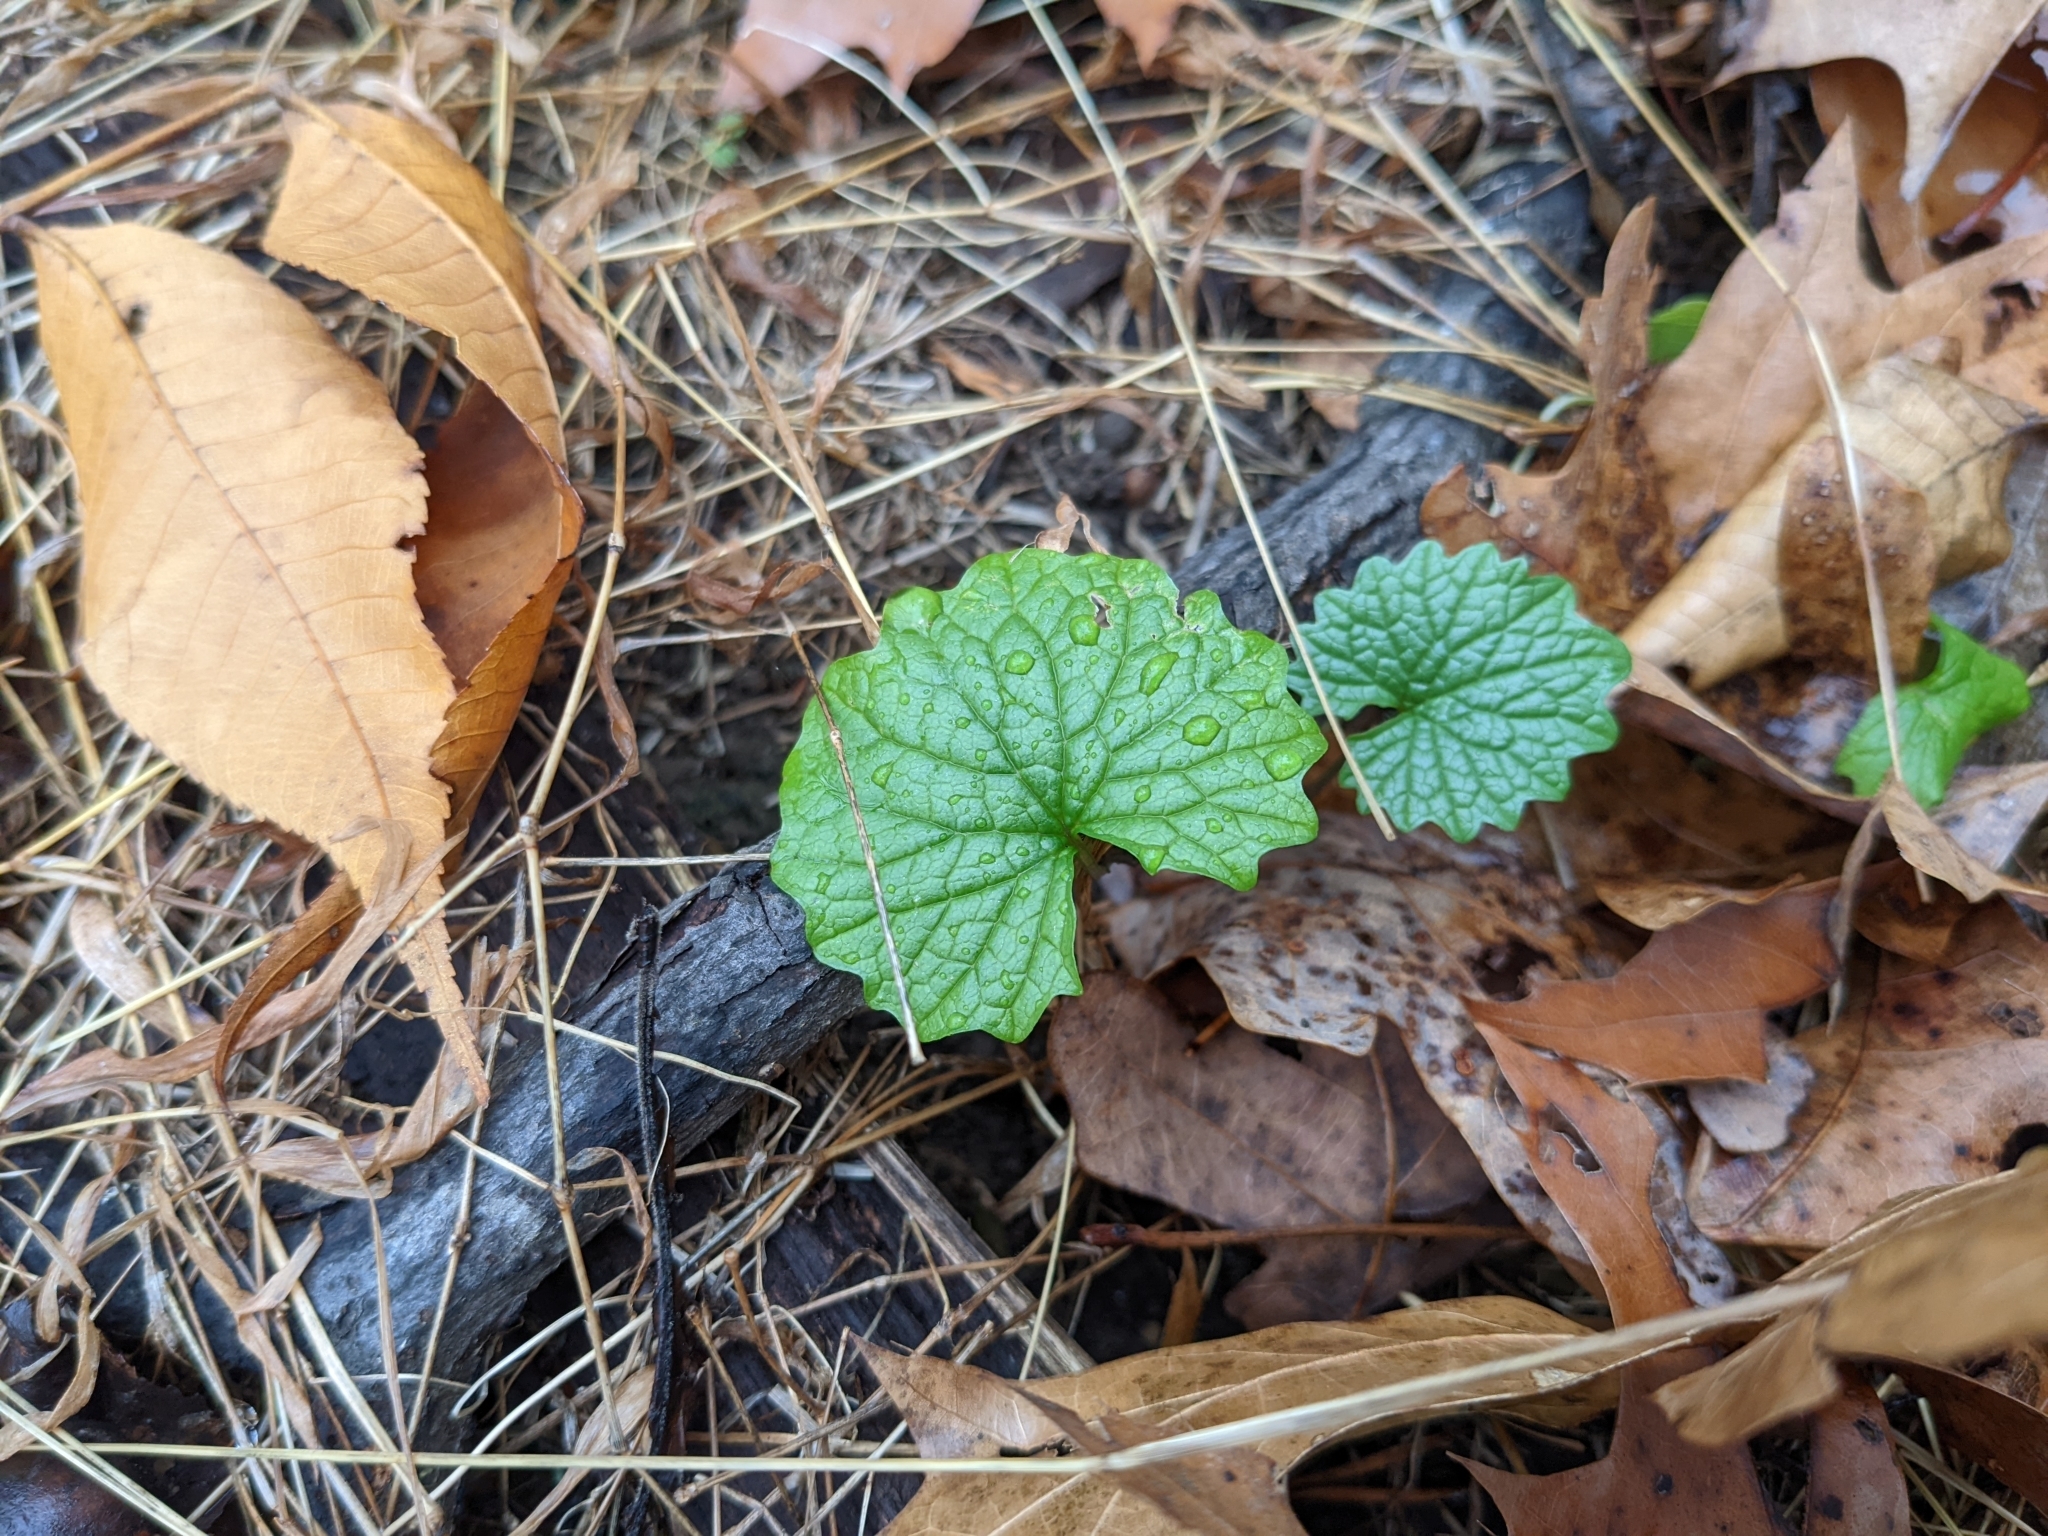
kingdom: Plantae
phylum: Tracheophyta
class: Magnoliopsida
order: Brassicales
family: Brassicaceae
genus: Alliaria
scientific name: Alliaria petiolata
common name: Garlic mustard
